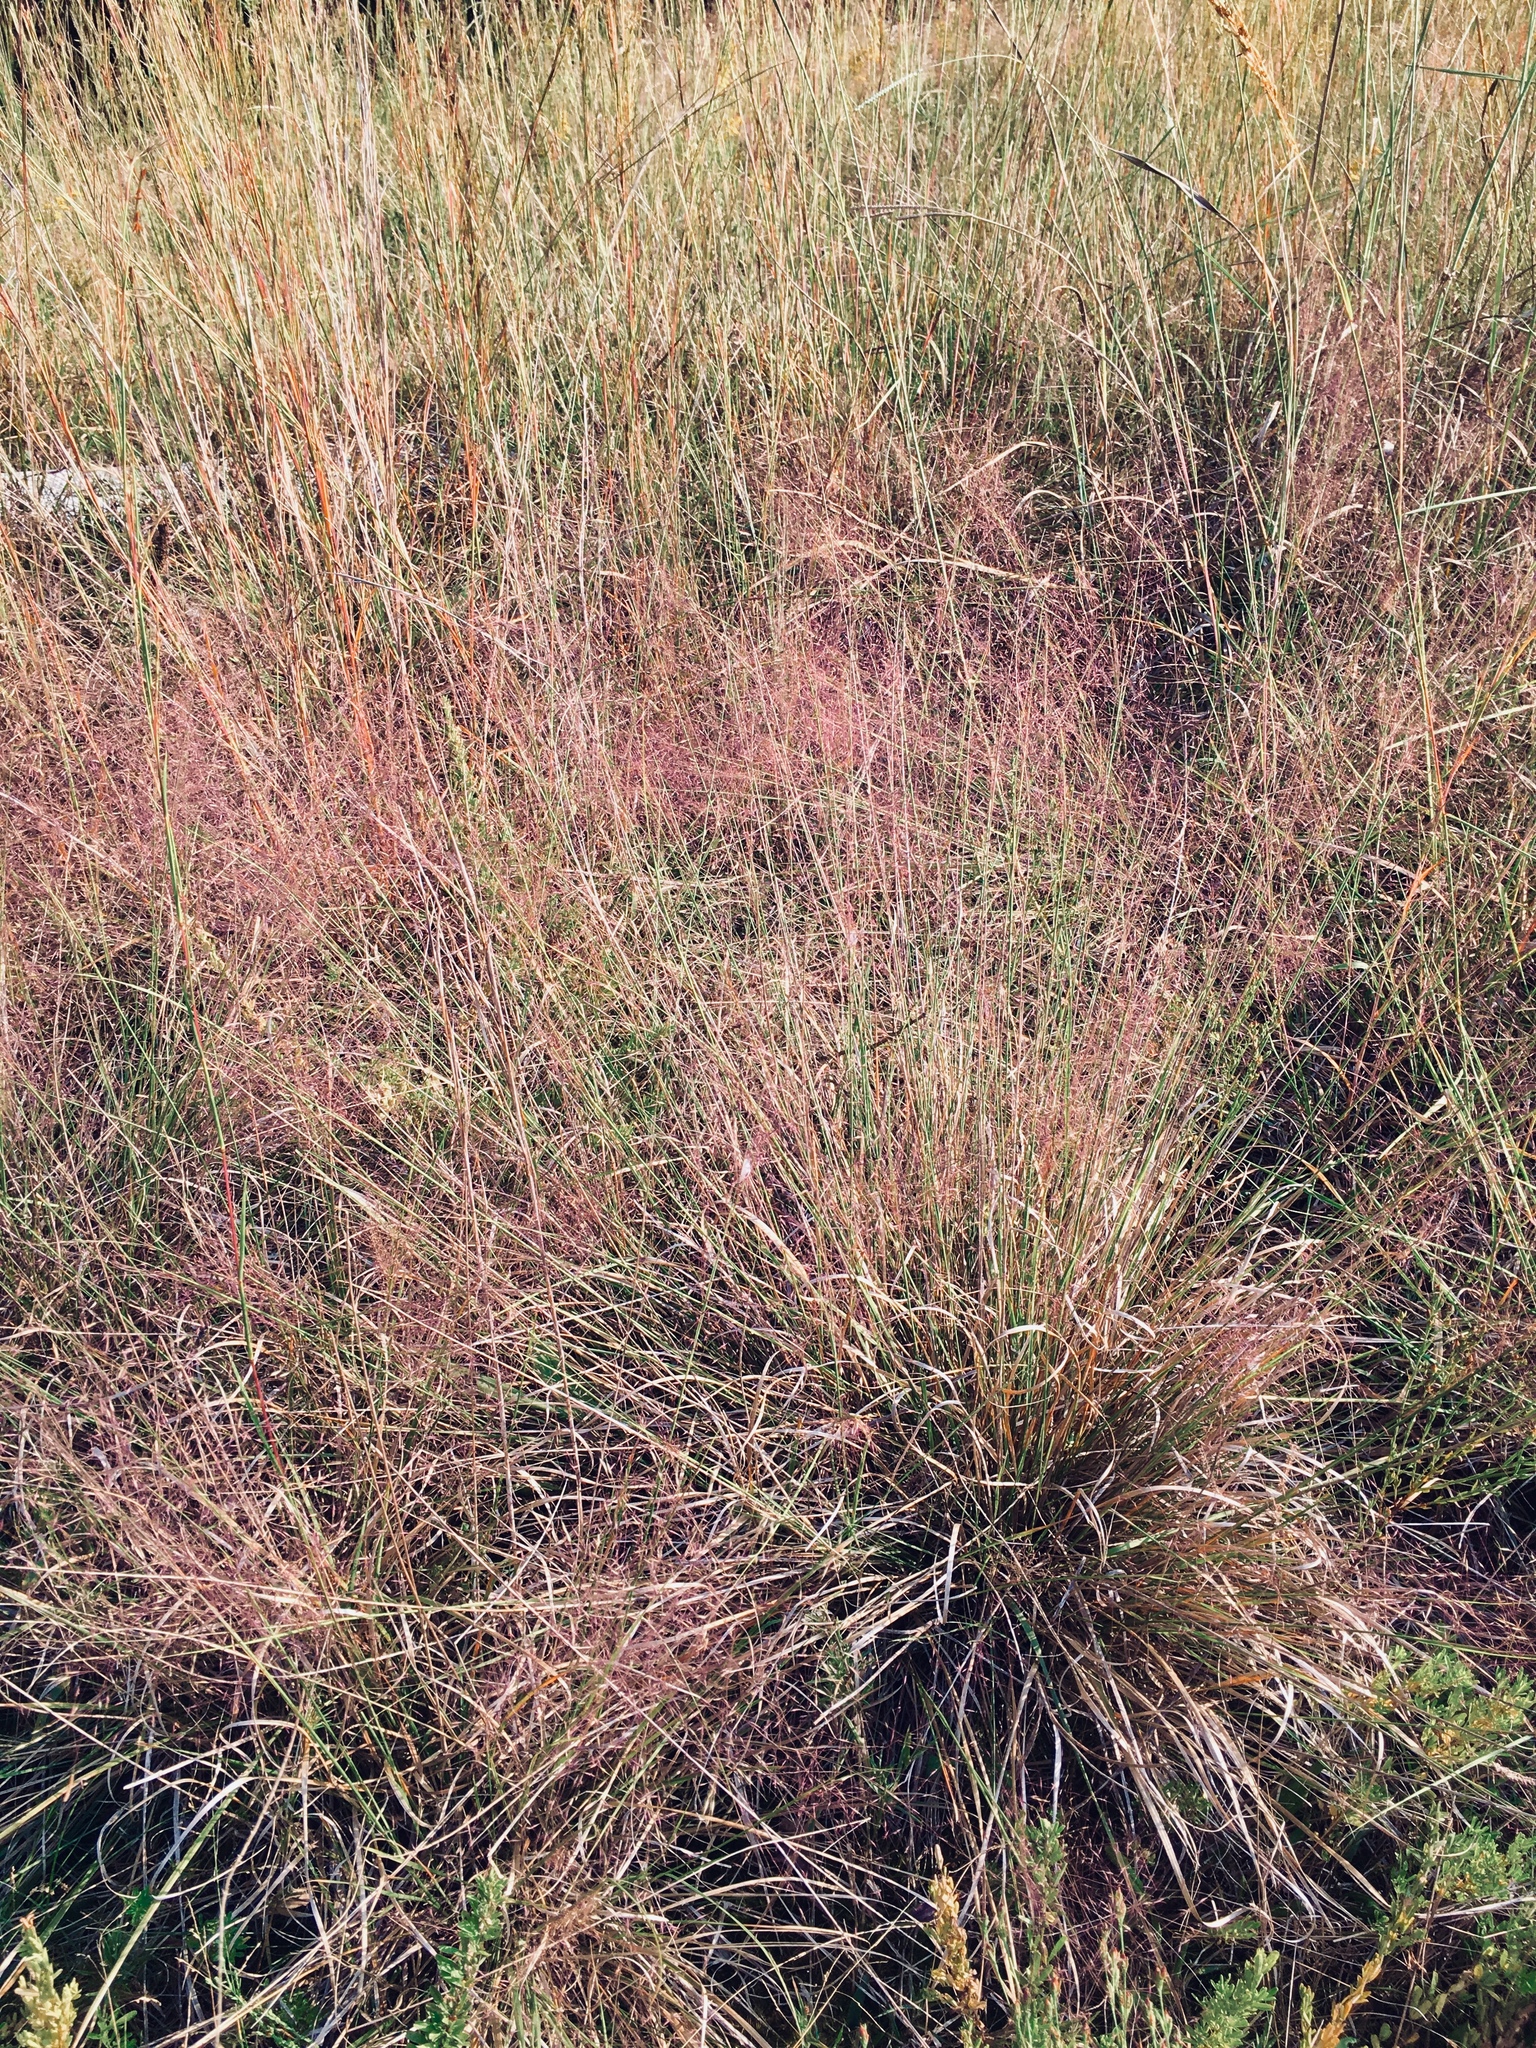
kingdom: Plantae
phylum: Tracheophyta
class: Liliopsida
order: Poales
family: Poaceae
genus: Muhlenbergia
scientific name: Muhlenbergia capillaris
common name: Purple grass
